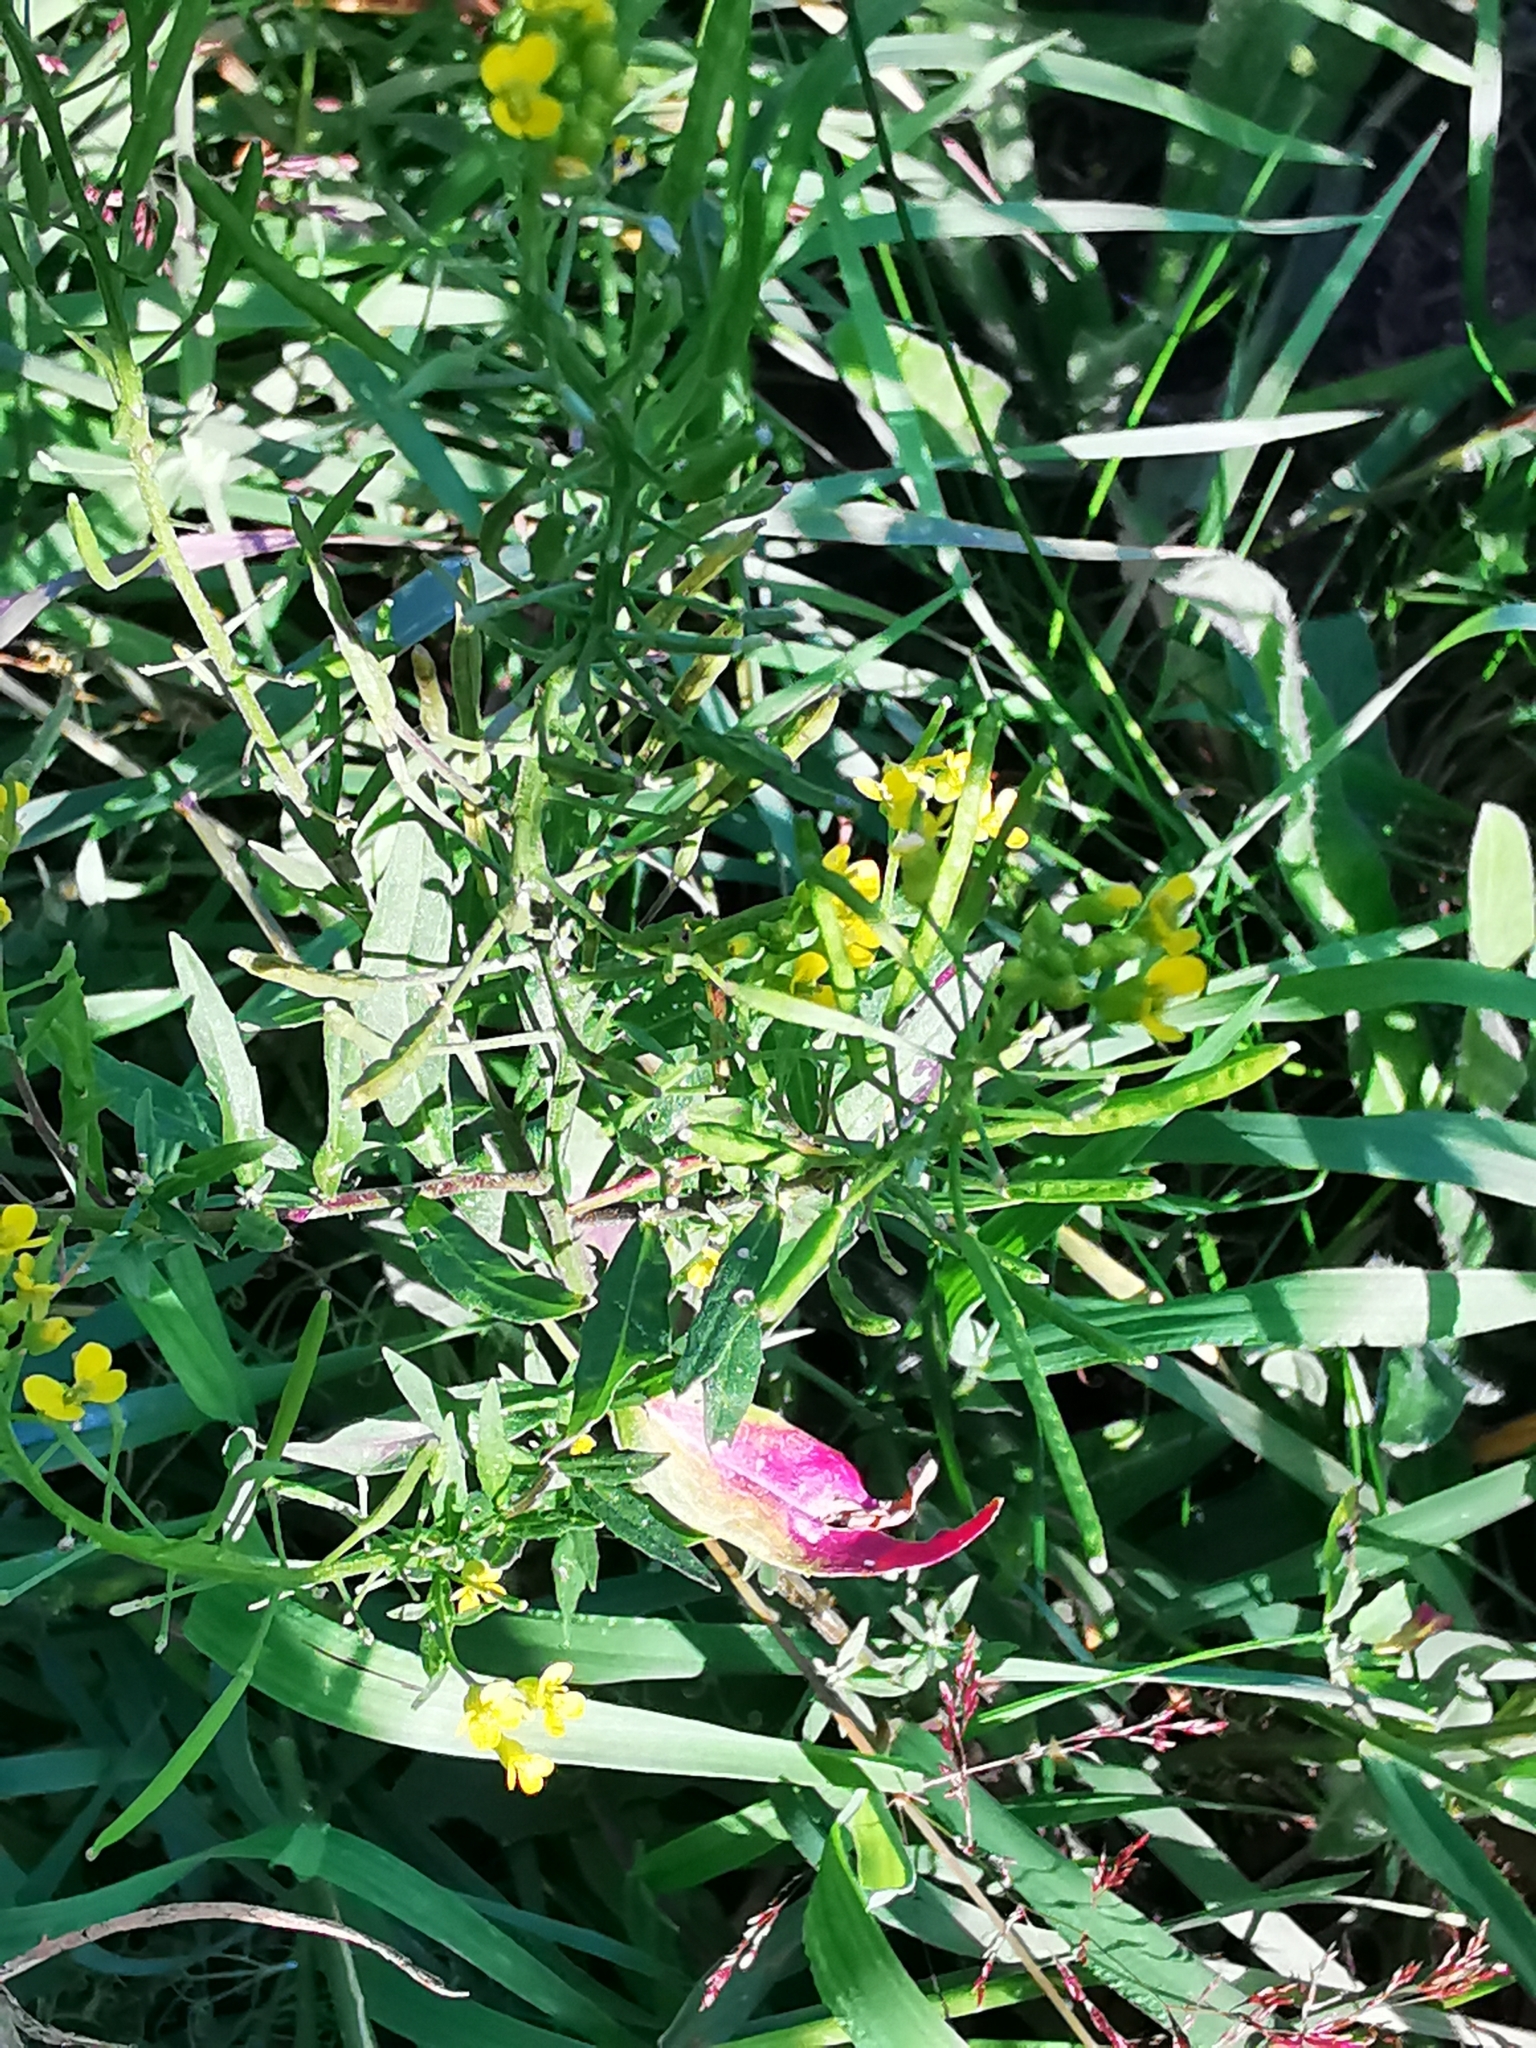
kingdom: Plantae
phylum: Tracheophyta
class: Magnoliopsida
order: Brassicales
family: Brassicaceae
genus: Erysimum
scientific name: Erysimum cheiranthoides
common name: Treacle mustard
